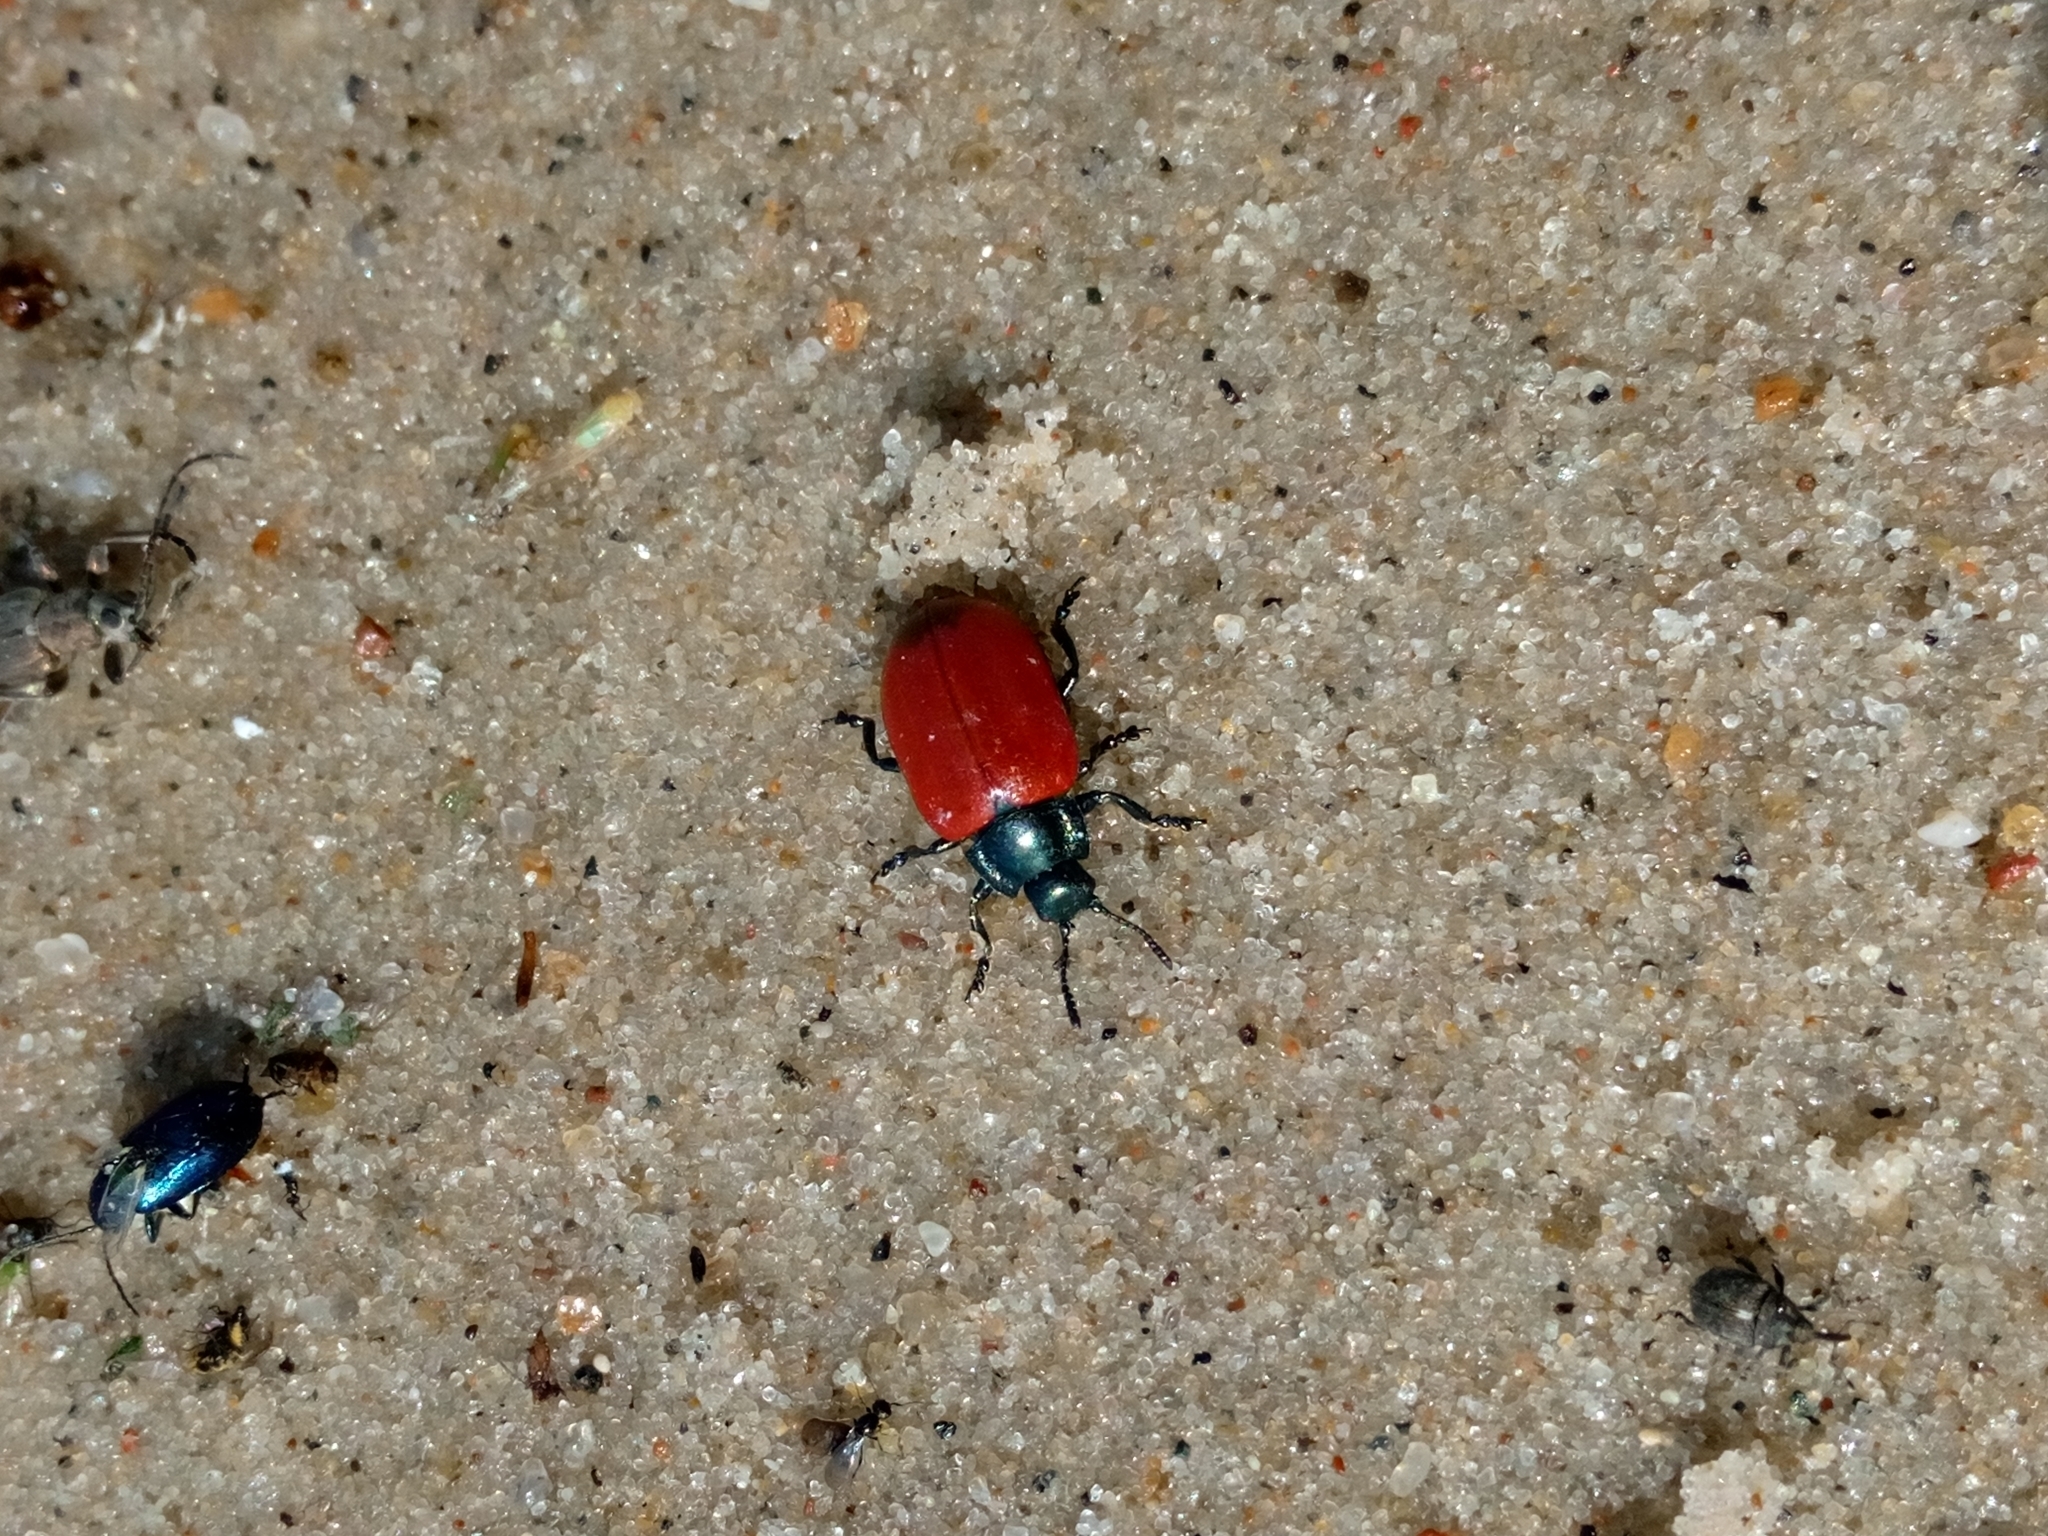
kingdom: Animalia
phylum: Arthropoda
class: Insecta
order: Coleoptera
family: Chrysomelidae
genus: Chrysomela
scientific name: Chrysomela populi
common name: Red poplar leaf beetle
